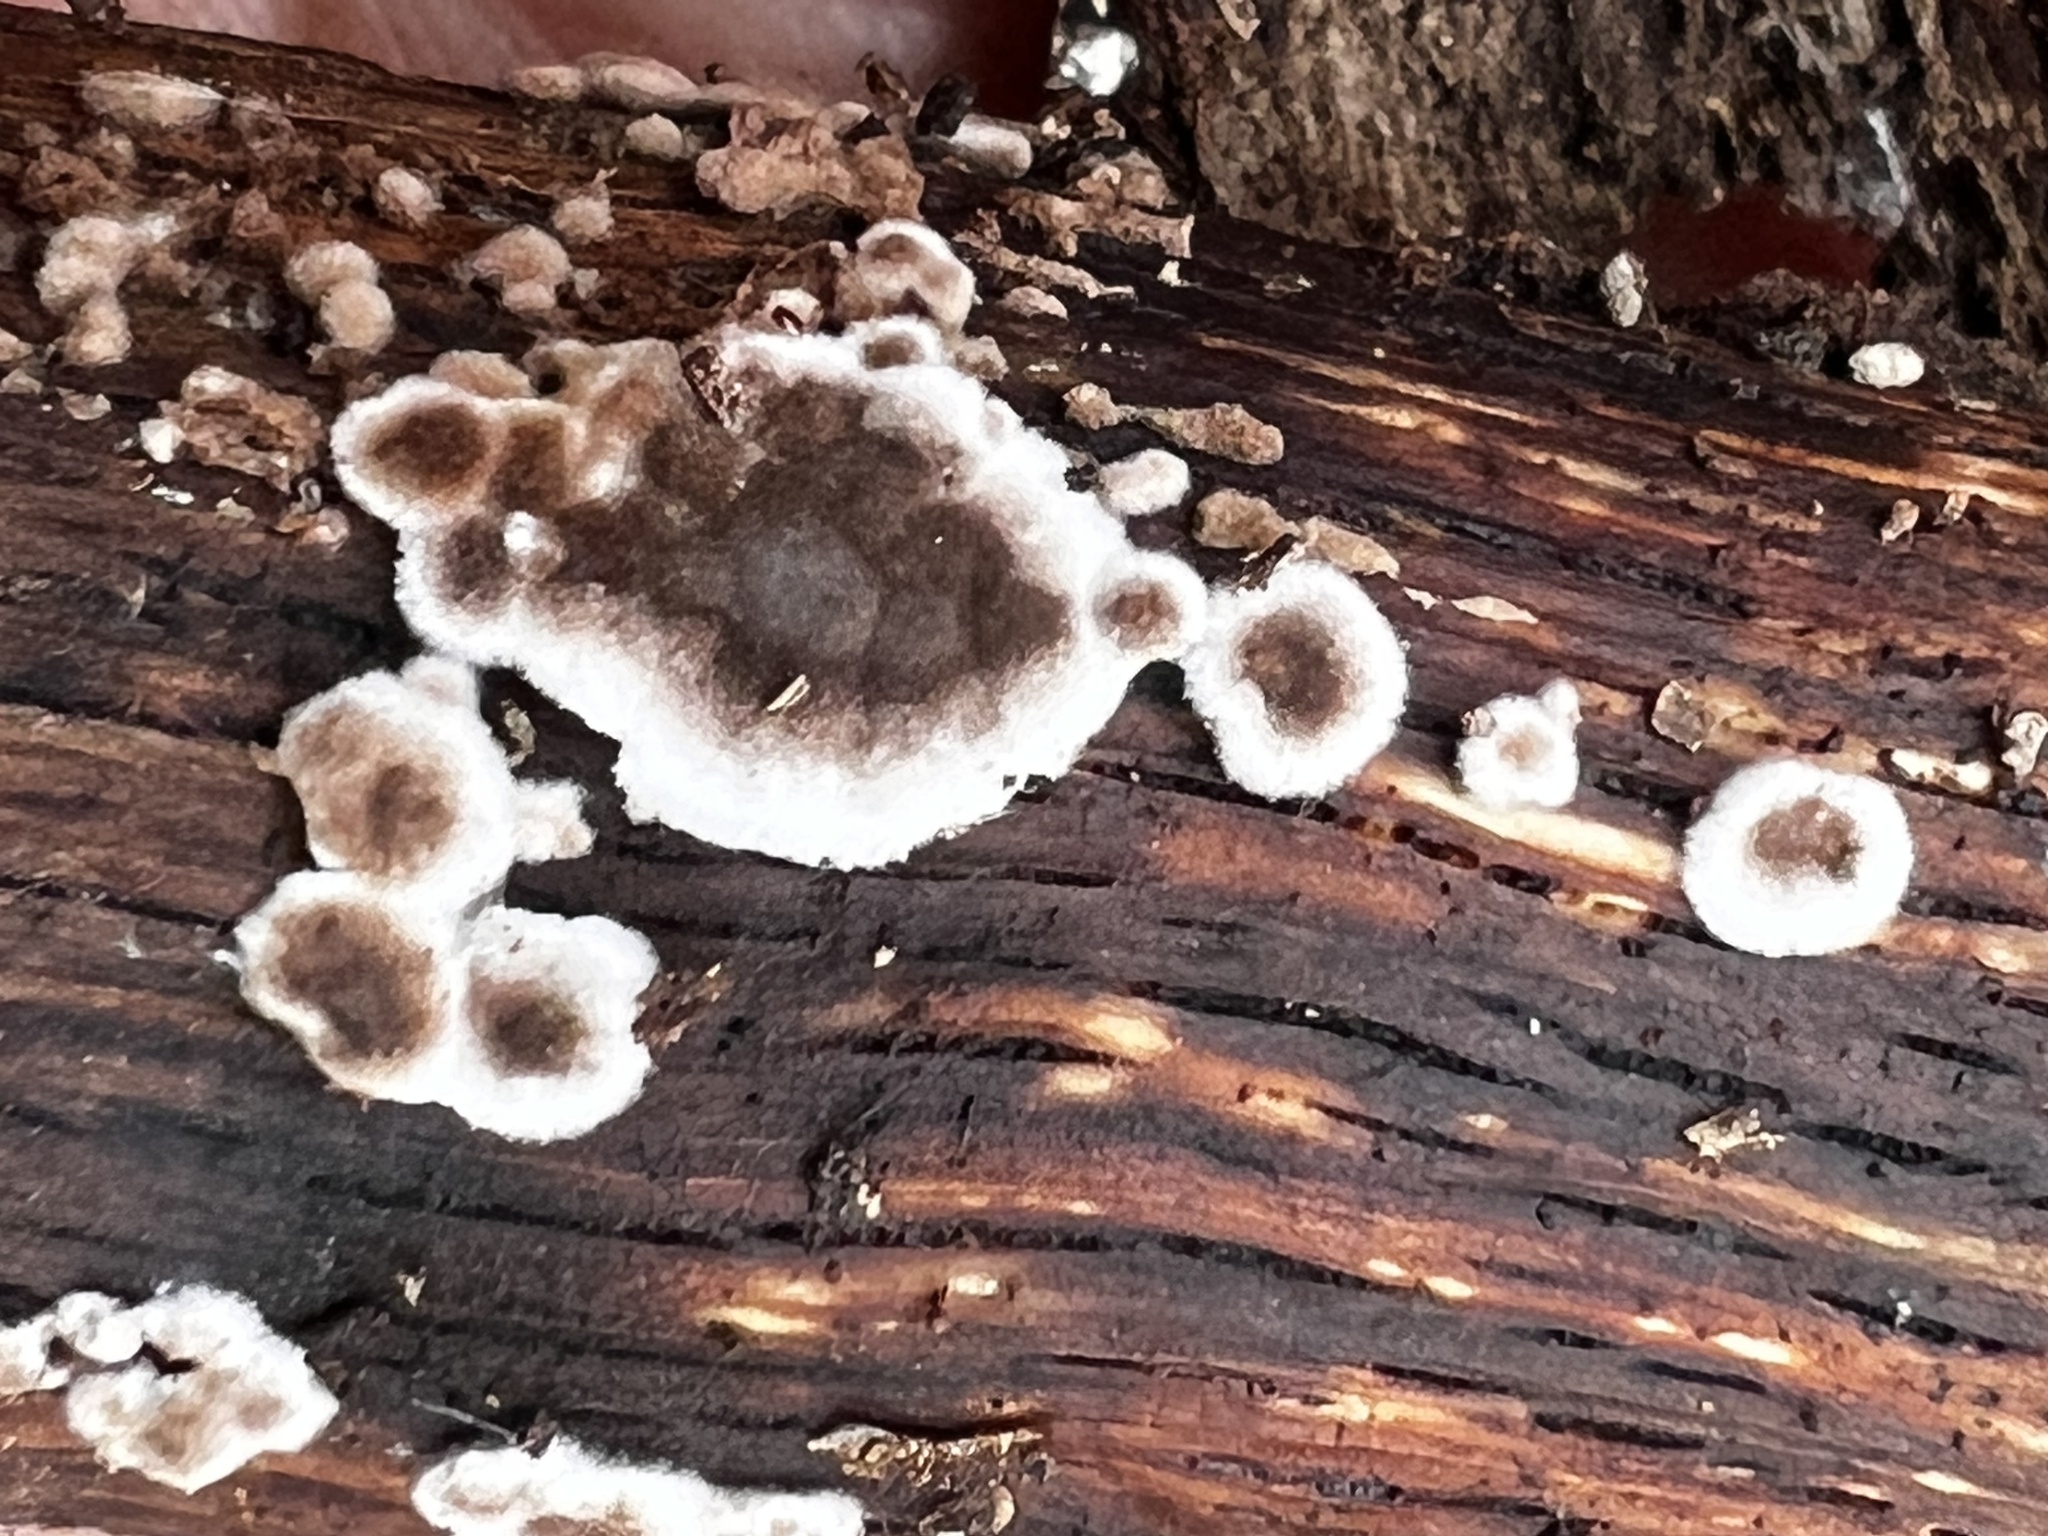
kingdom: Fungi
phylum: Basidiomycota
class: Agaricomycetes
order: Russulales
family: Peniophoraceae
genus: Peniophora
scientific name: Peniophora albobadia
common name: Giraffe spots
